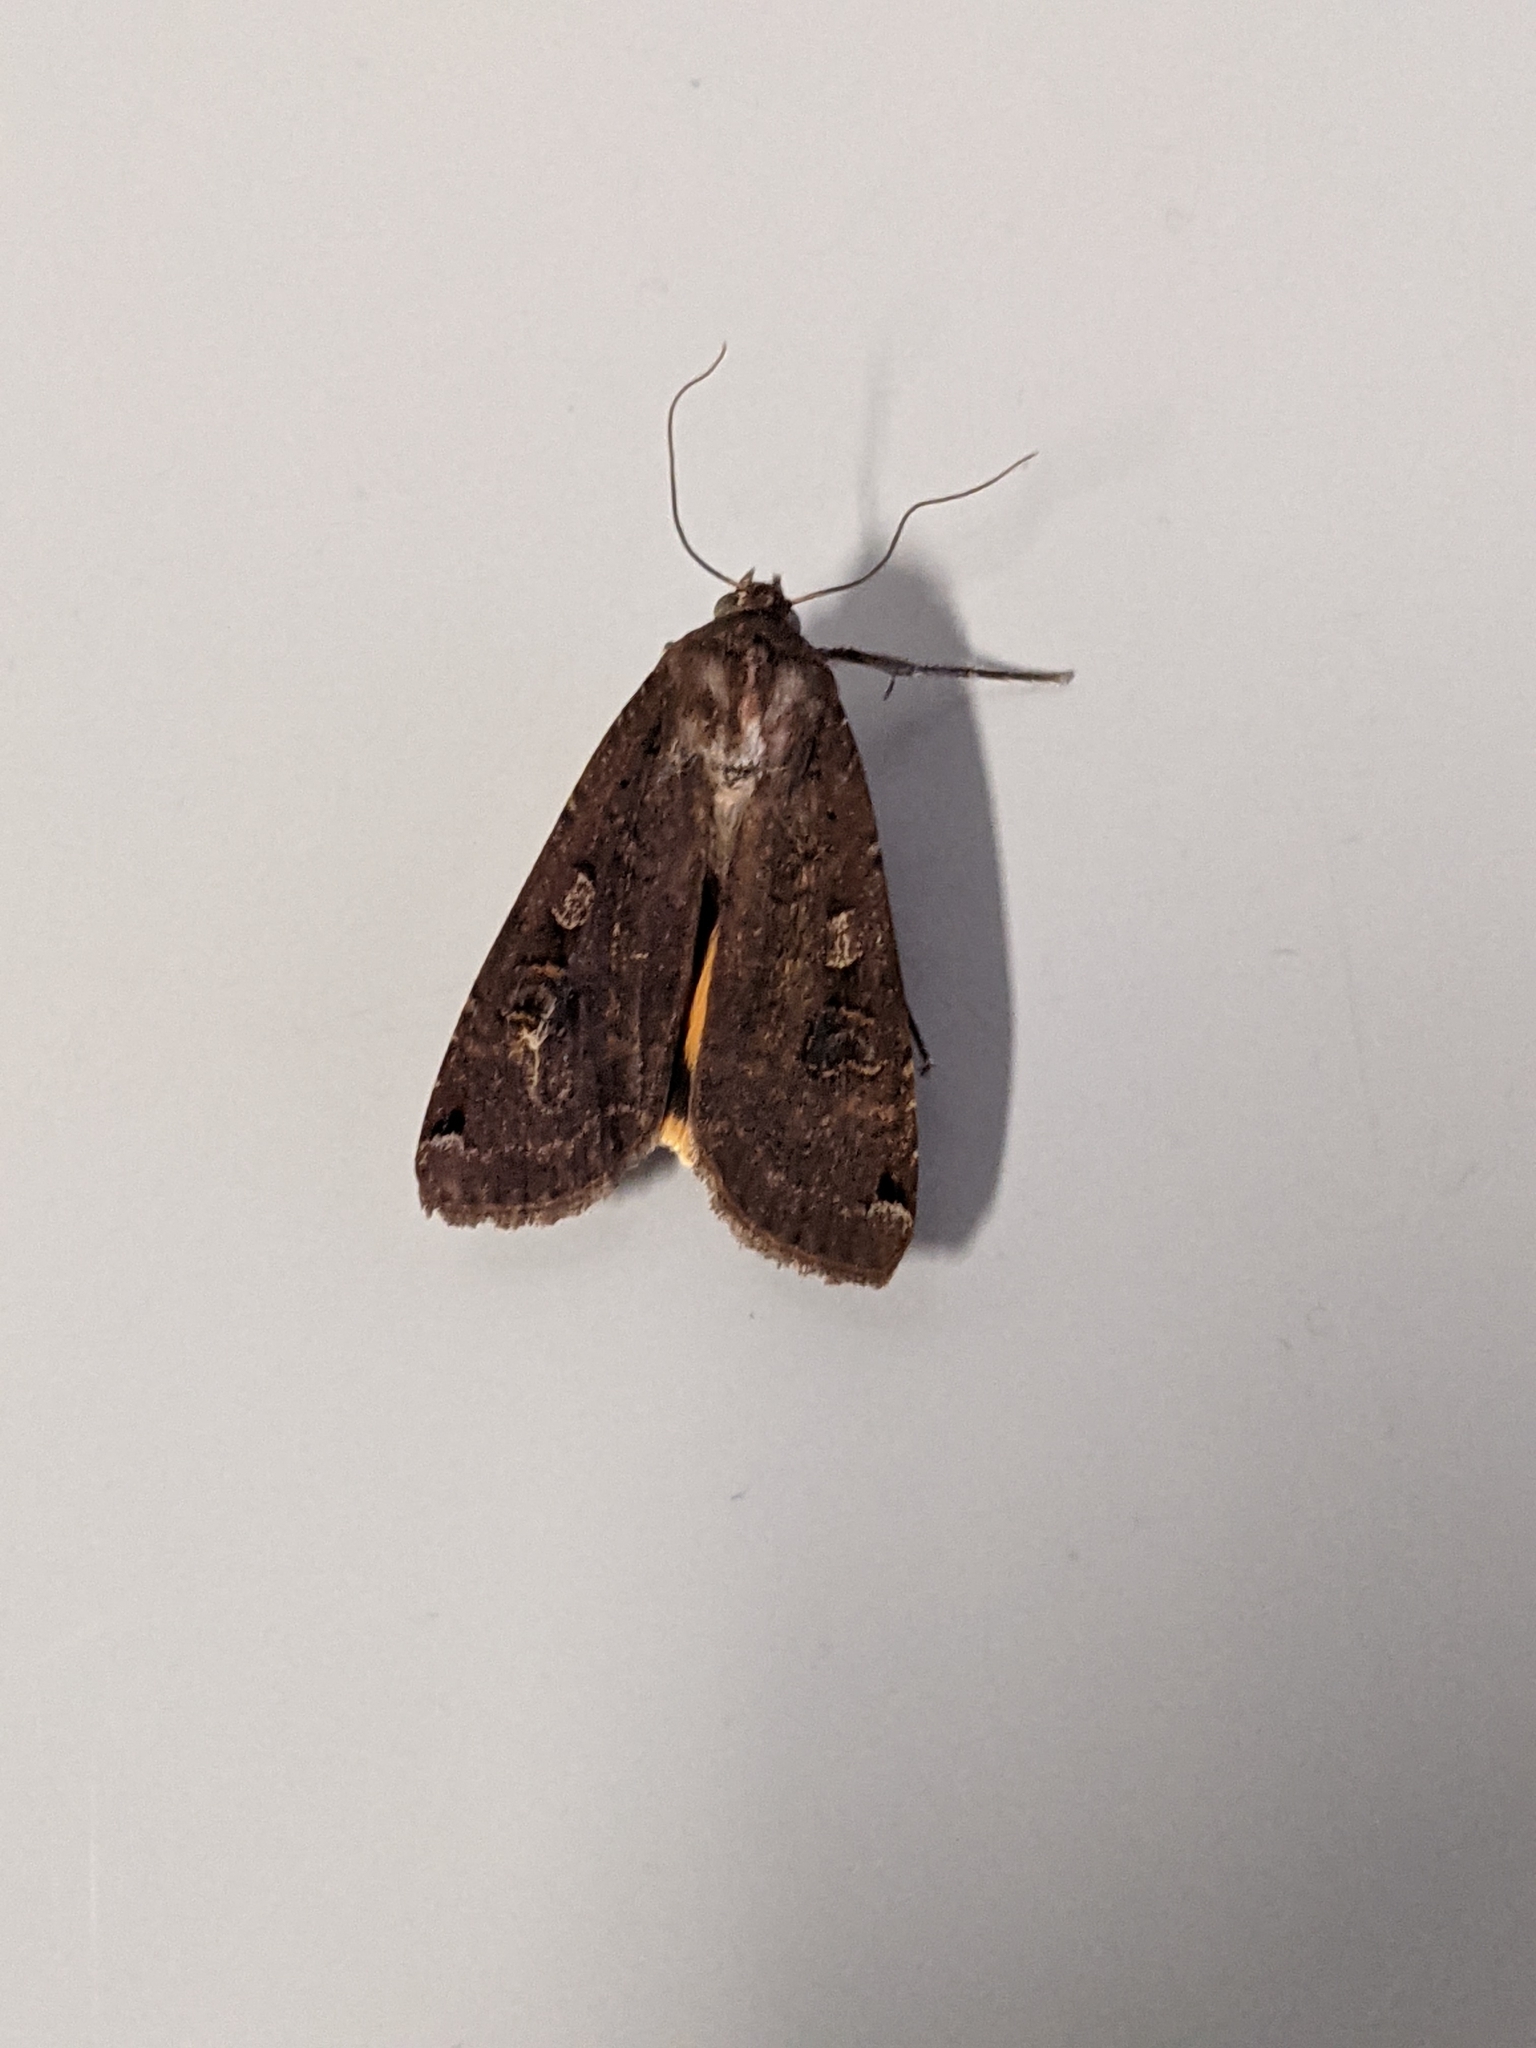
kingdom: Animalia
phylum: Arthropoda
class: Insecta
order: Lepidoptera
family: Noctuidae
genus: Noctua
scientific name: Noctua pronuba
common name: Large yellow underwing
